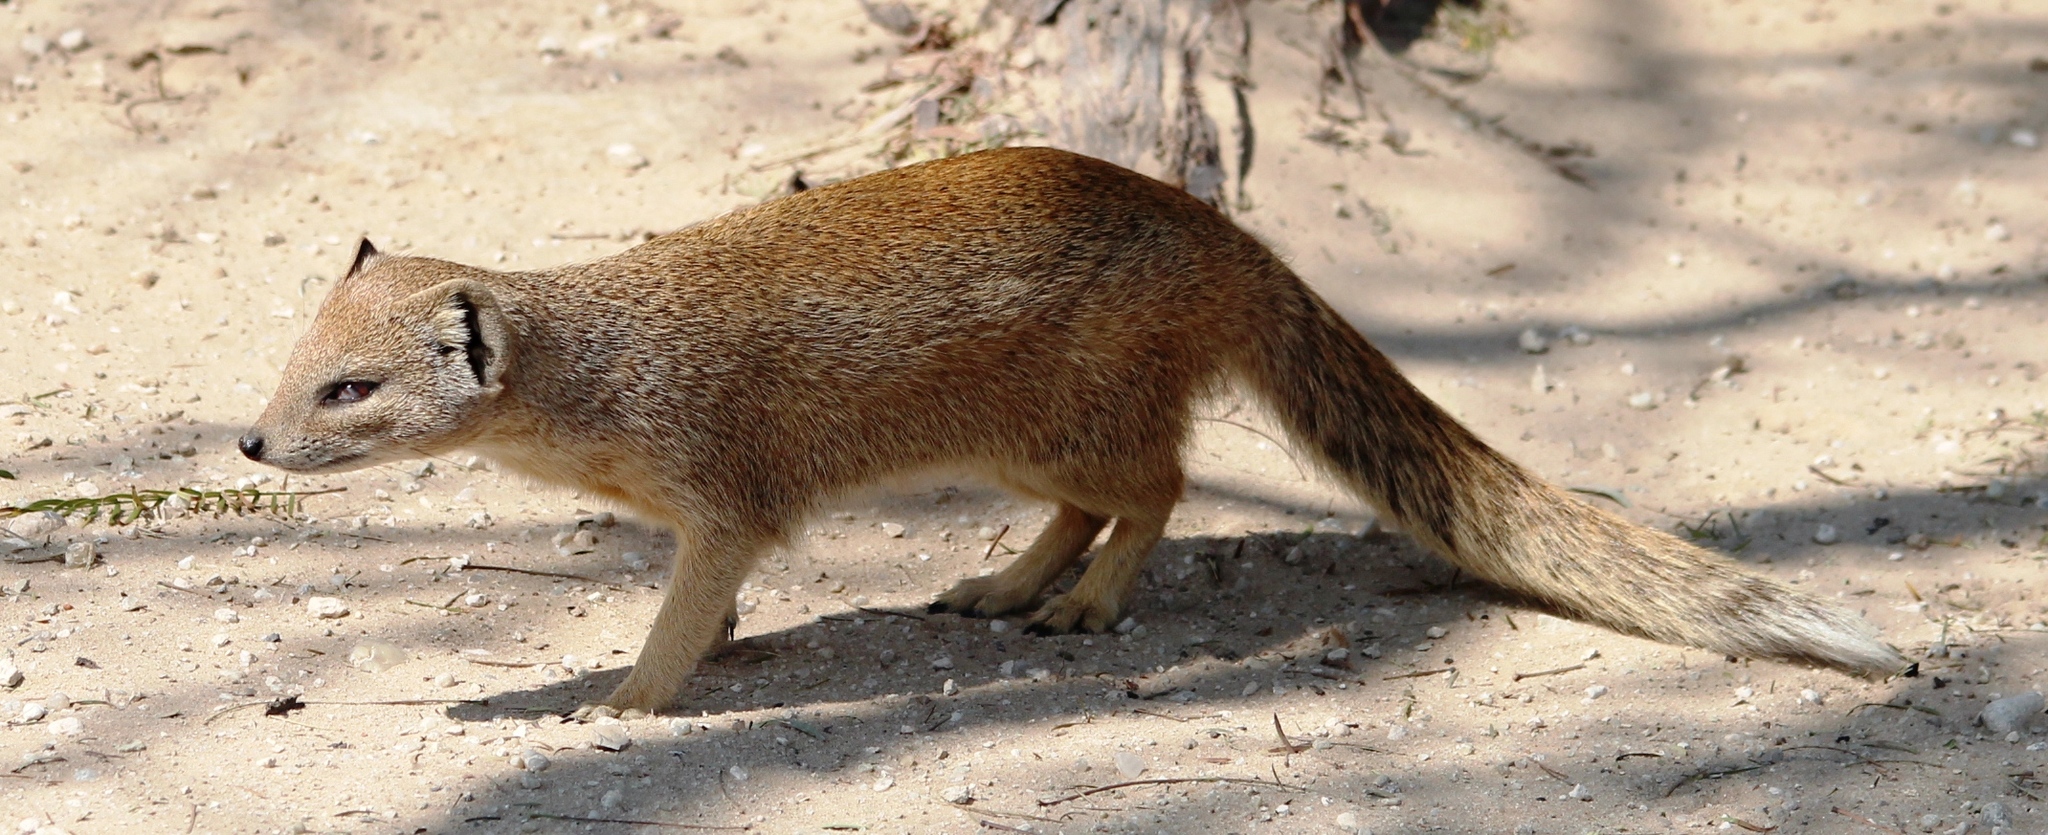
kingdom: Animalia
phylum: Chordata
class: Mammalia
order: Carnivora
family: Herpestidae
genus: Cynictis
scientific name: Cynictis penicillata
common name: Yellow mongoose
